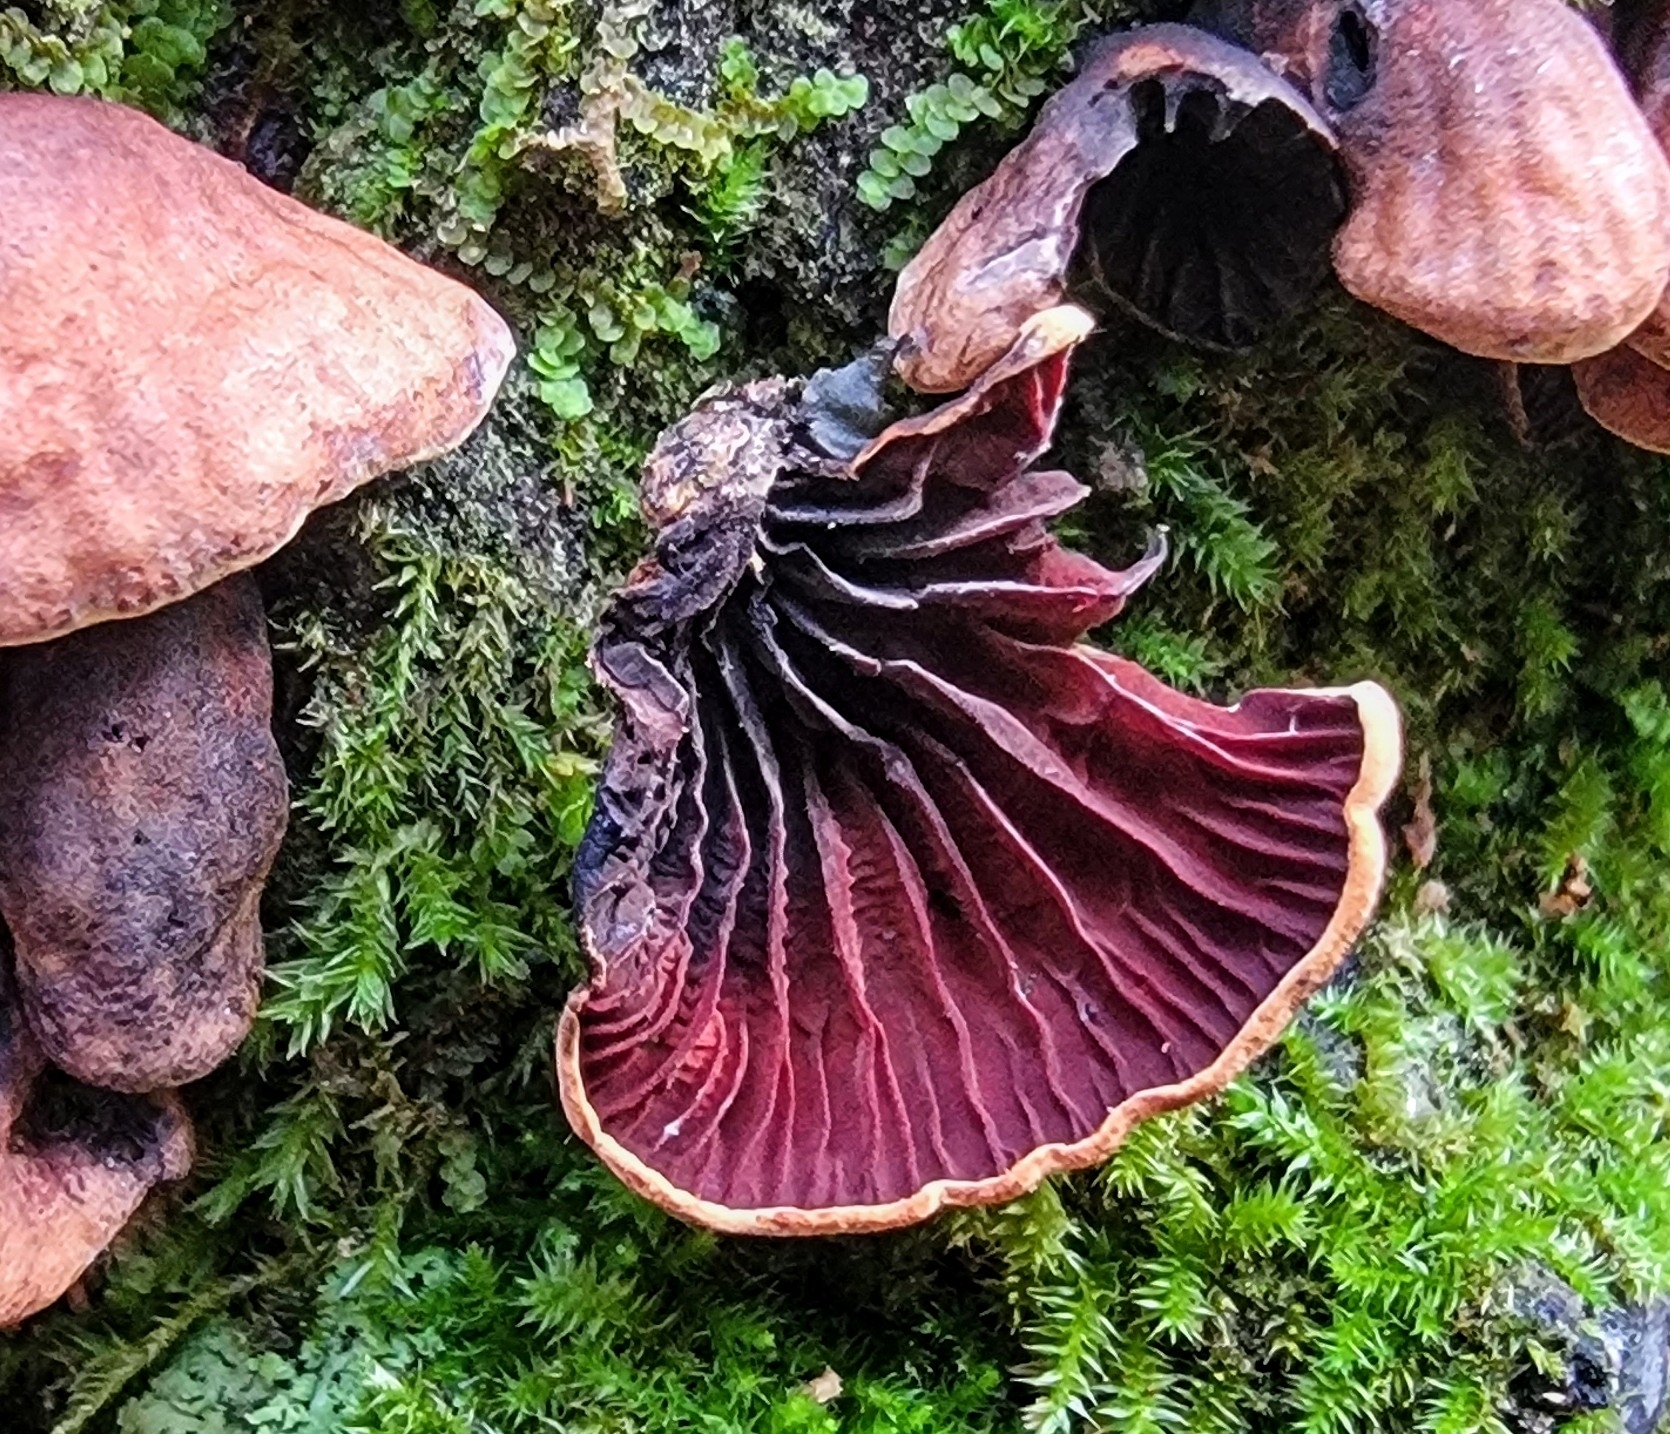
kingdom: Fungi
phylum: Basidiomycota
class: Agaricomycetes
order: Agaricales
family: Omphalotaceae
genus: Anthracophyllum
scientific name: Anthracophyllum lateritium
